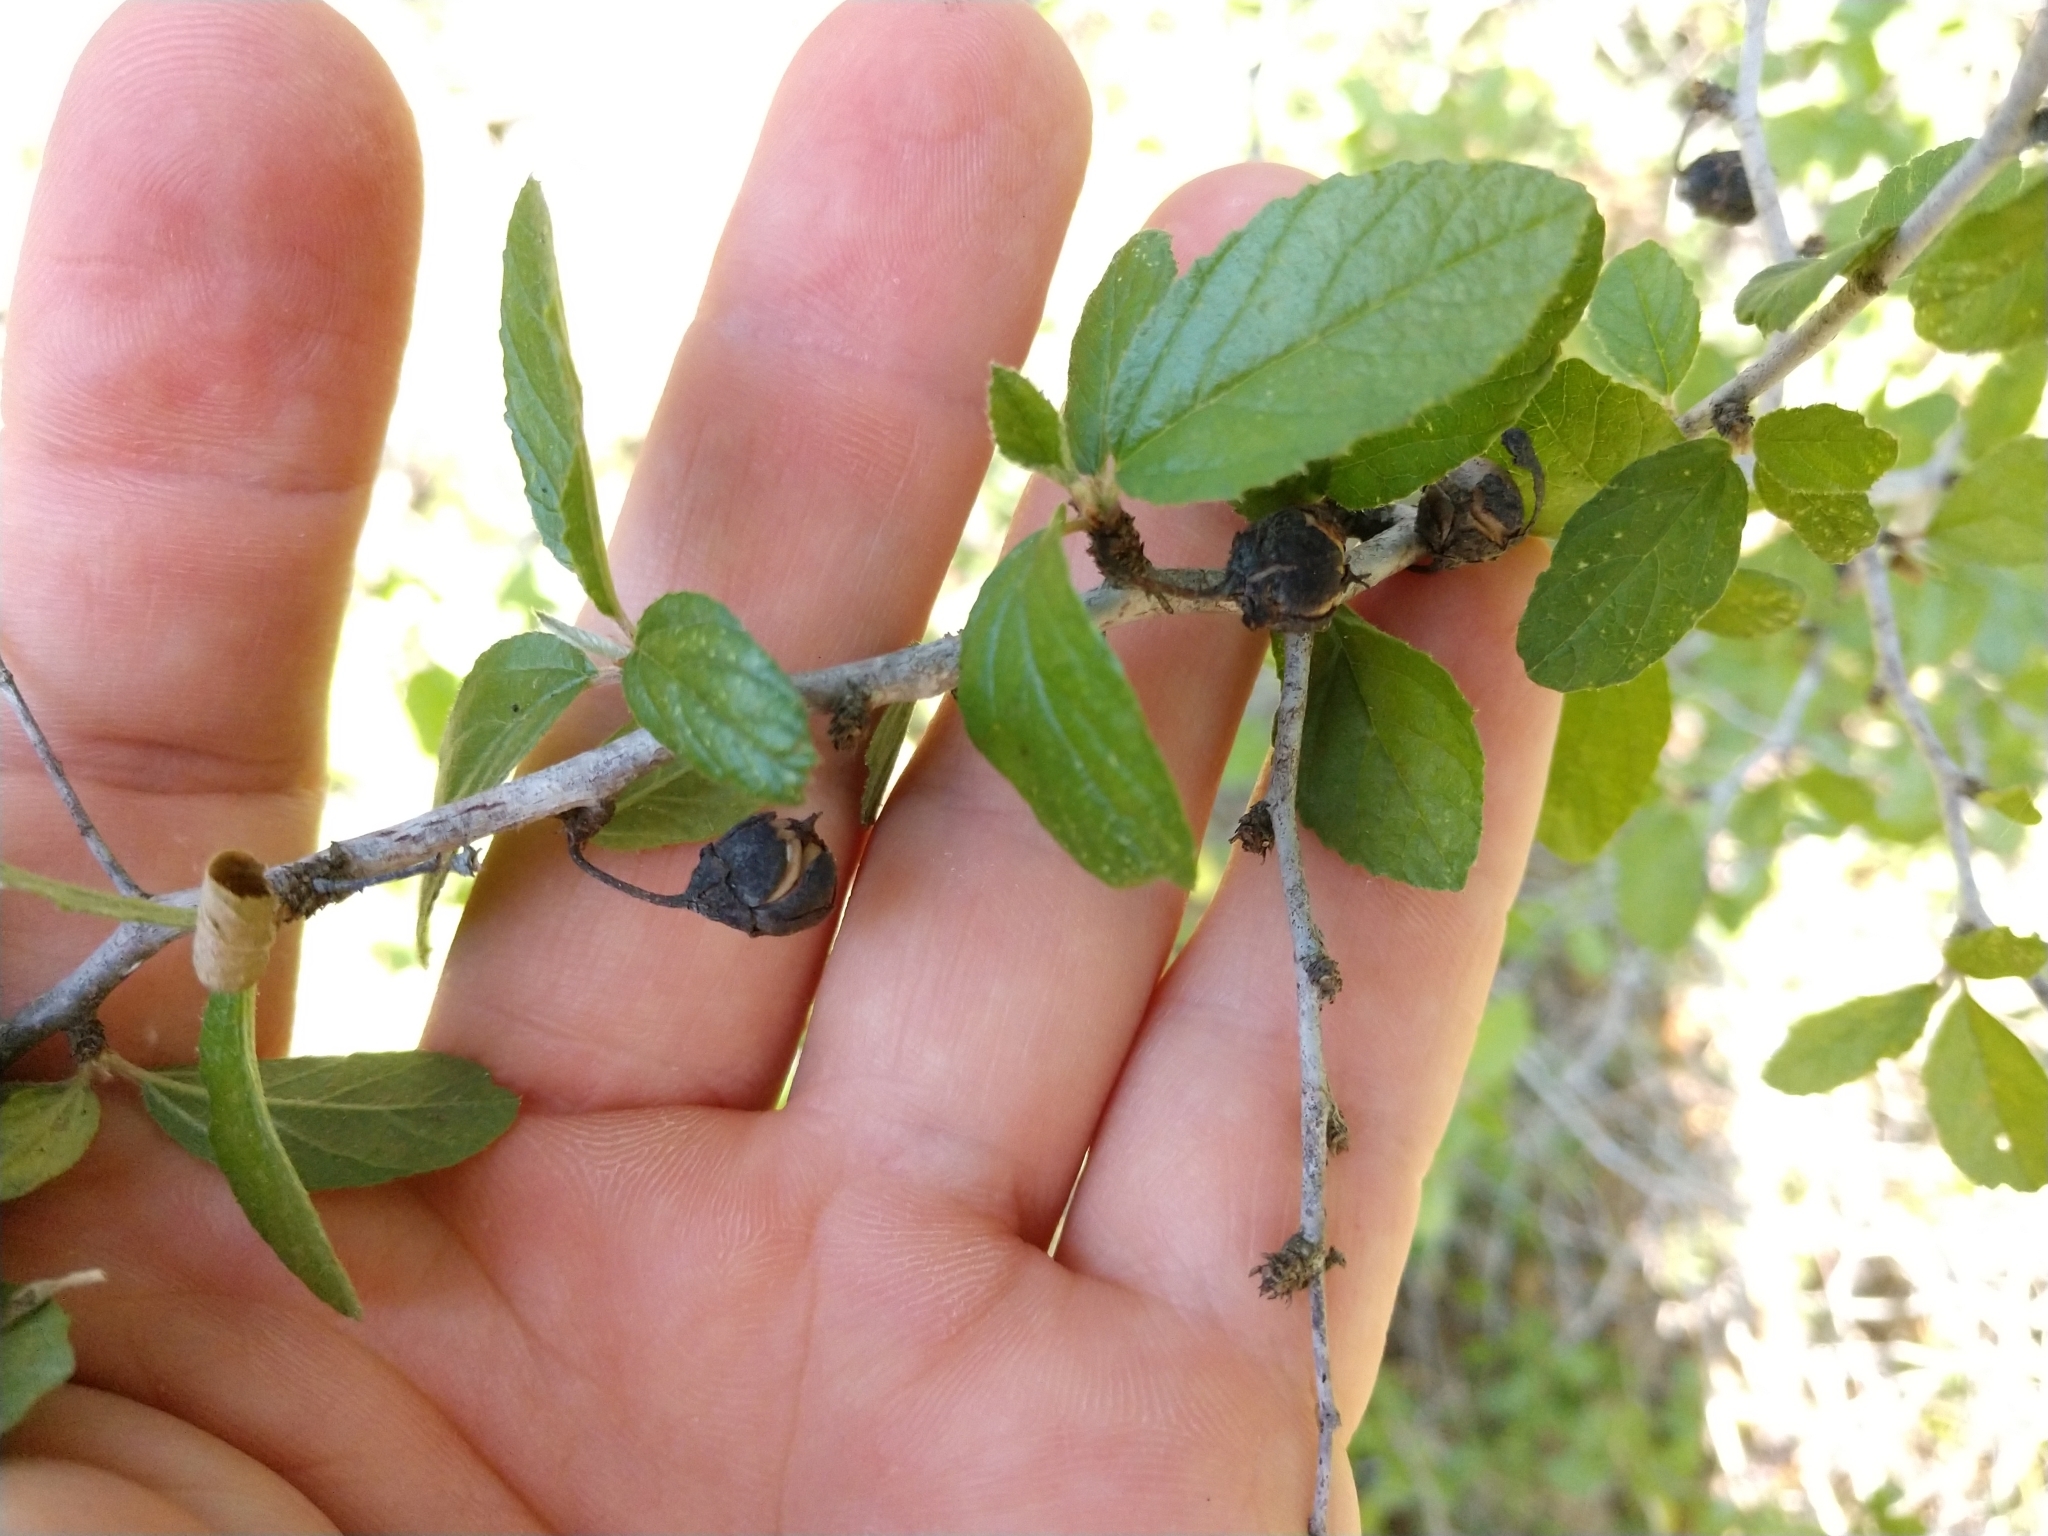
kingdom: Plantae
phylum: Tracheophyta
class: Magnoliopsida
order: Rosales
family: Rhamnaceae
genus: Colubrina
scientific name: Colubrina texensis
